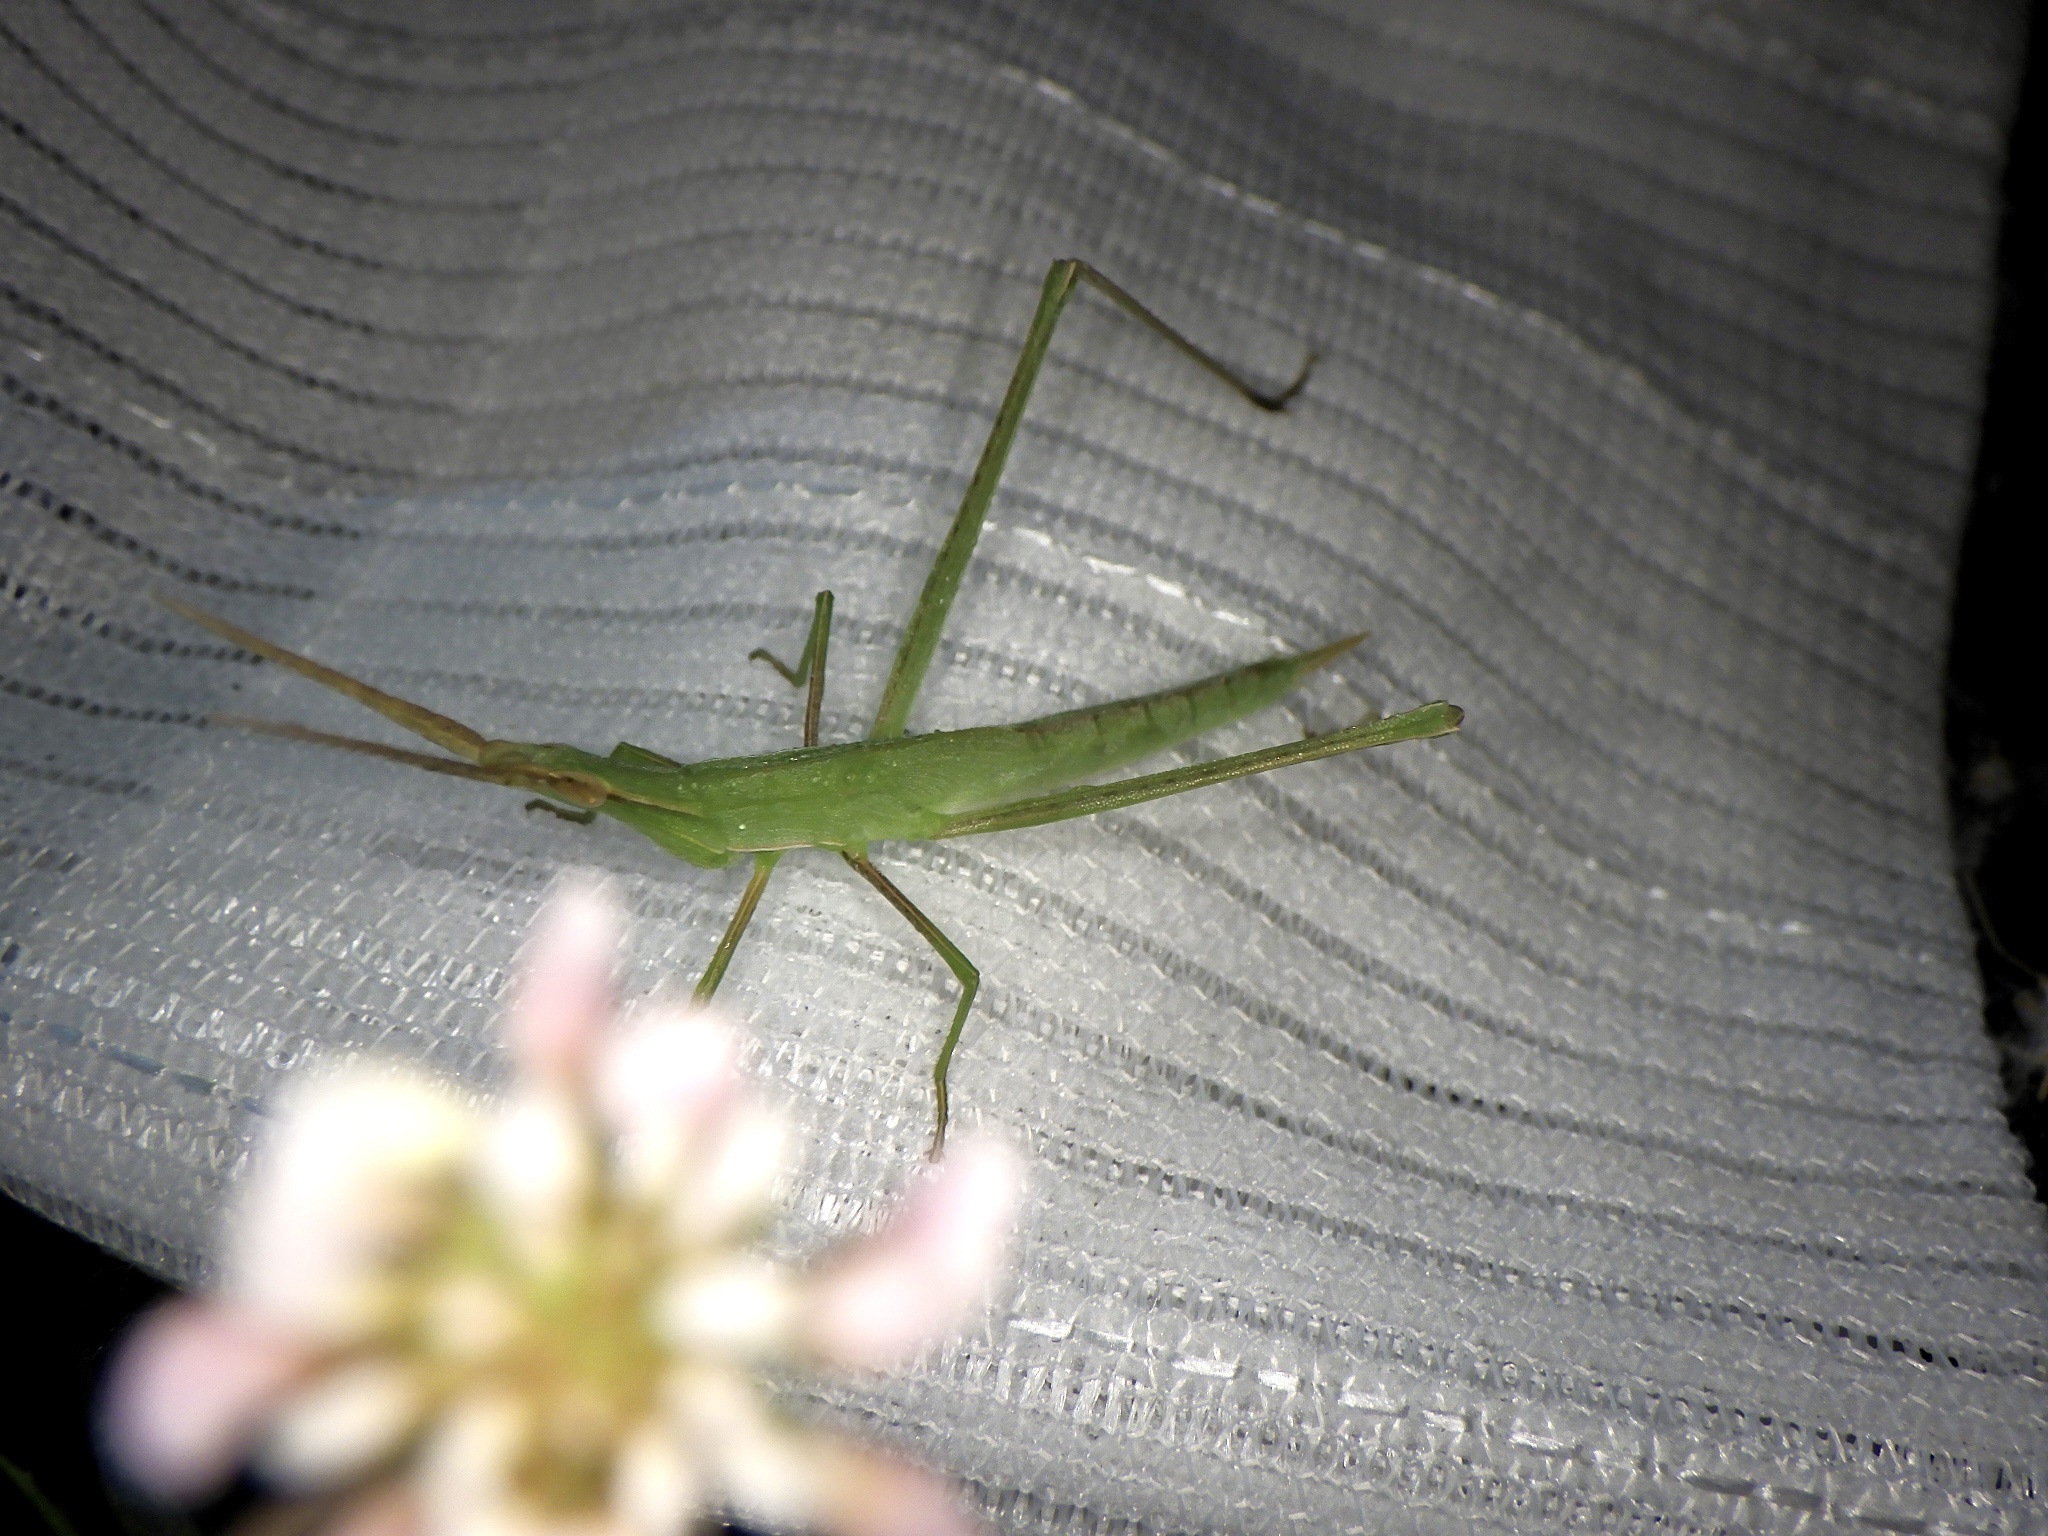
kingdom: Animalia
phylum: Arthropoda
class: Insecta
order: Orthoptera
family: Acrididae
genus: Acrida
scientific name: Acrida cinerea
